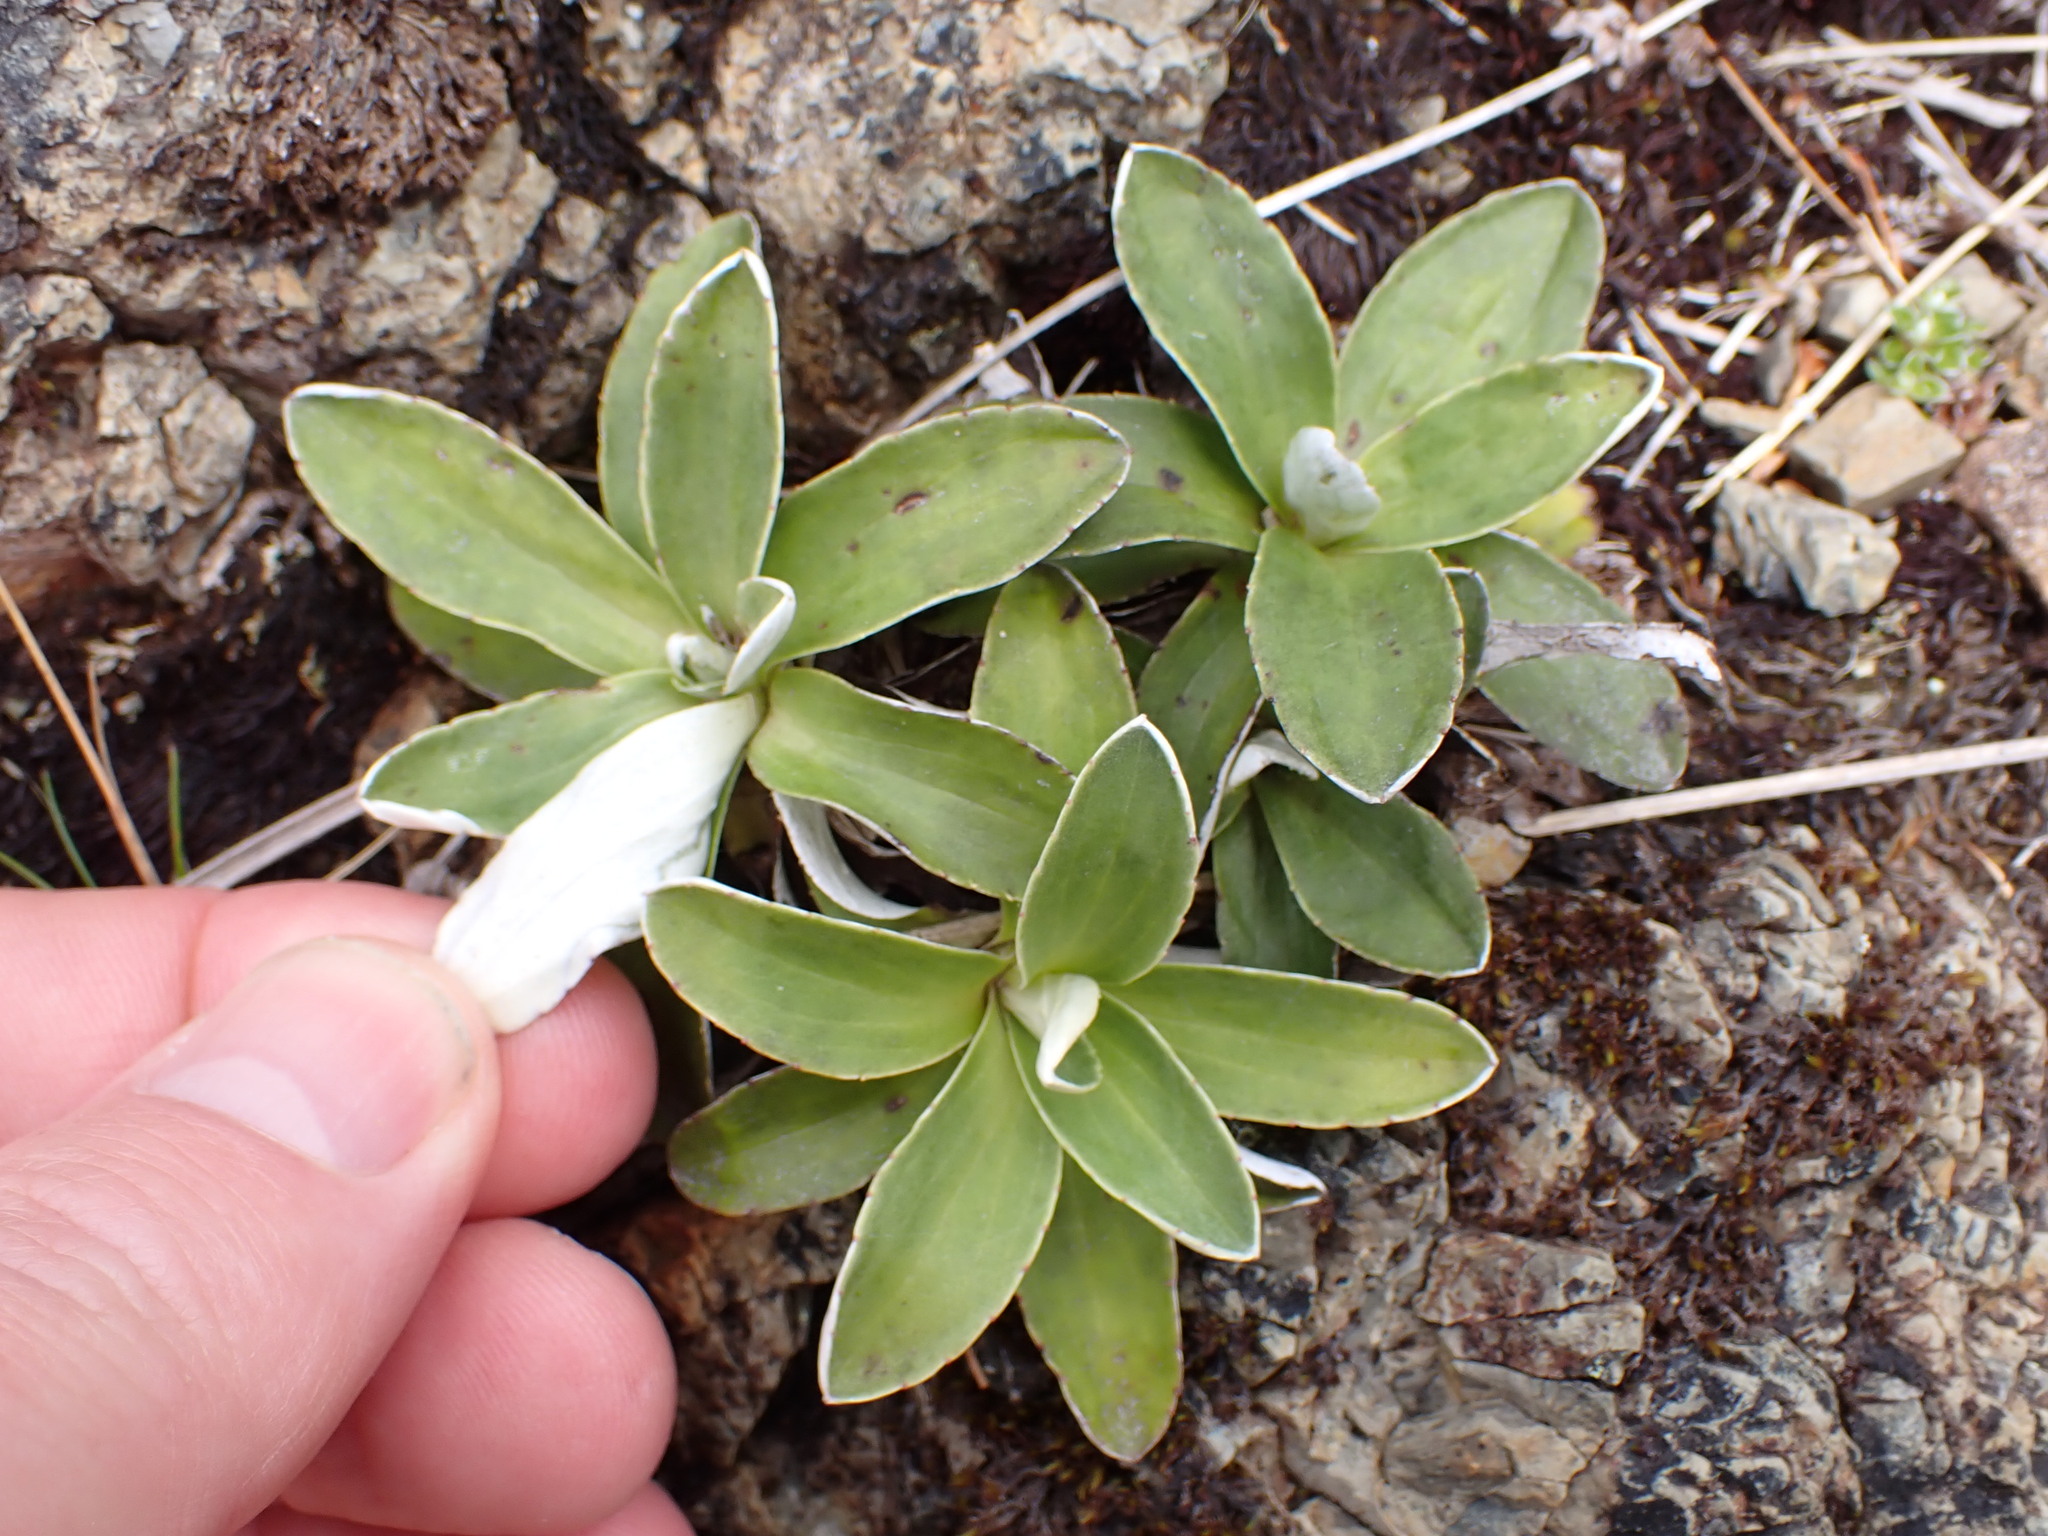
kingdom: Plantae
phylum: Tracheophyta
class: Magnoliopsida
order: Asterales
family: Asteraceae
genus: Celmisia
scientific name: Celmisia hieraciifolia
